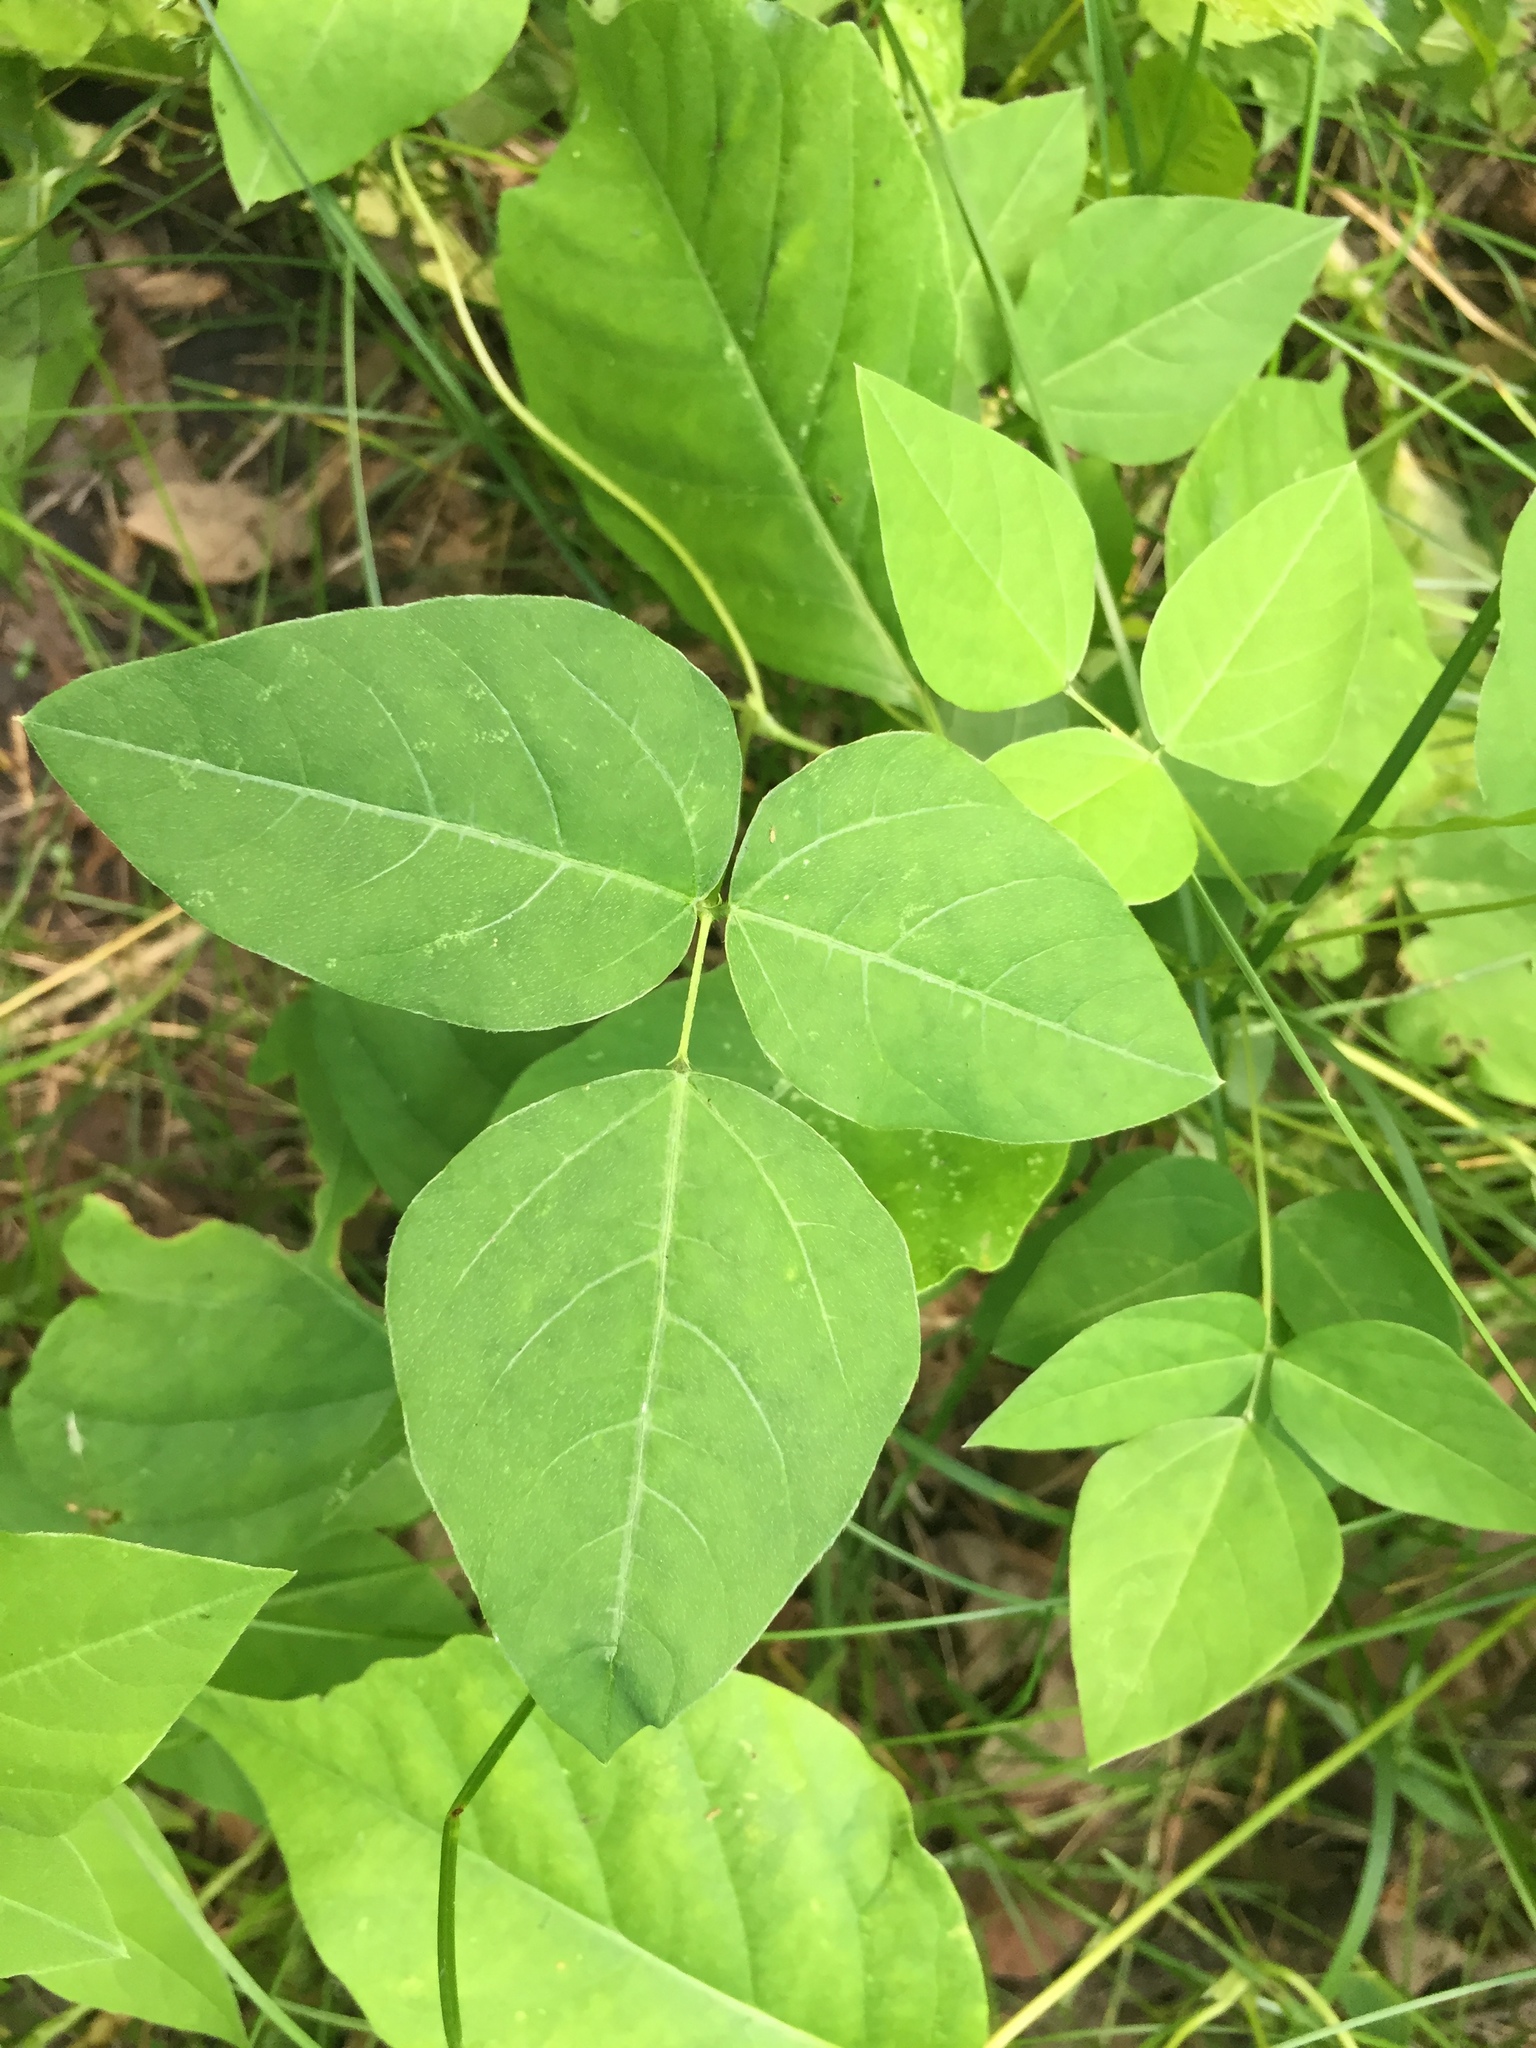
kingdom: Plantae
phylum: Tracheophyta
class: Magnoliopsida
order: Fabales
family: Fabaceae
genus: Amphicarpaea
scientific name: Amphicarpaea bracteata
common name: American hog peanut
